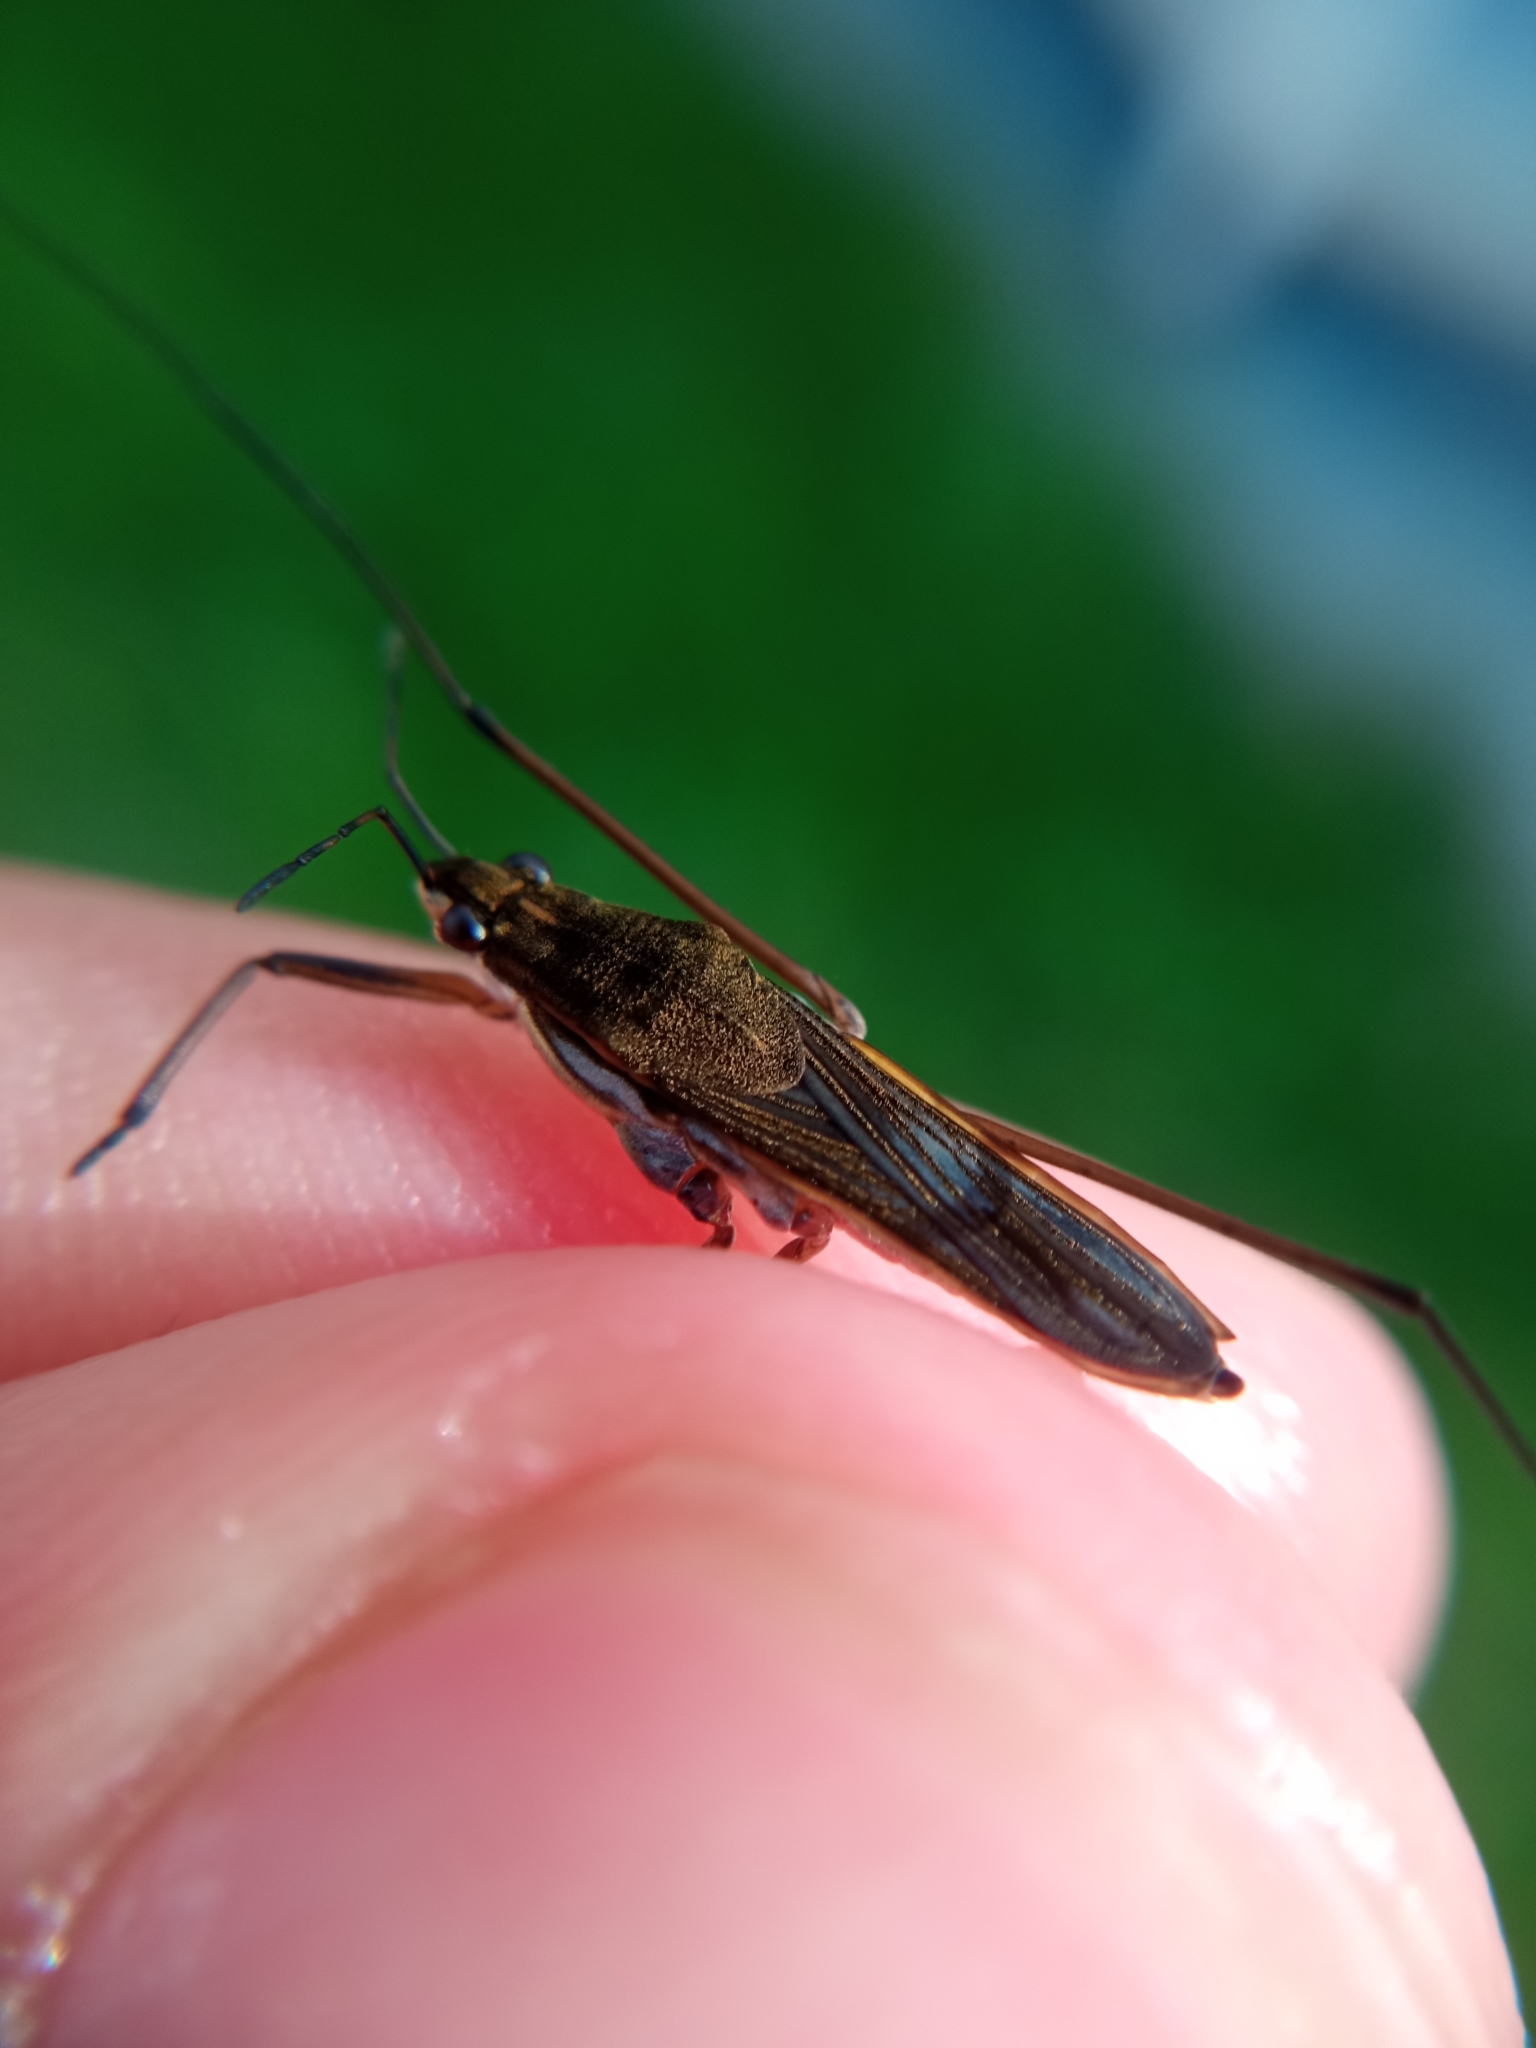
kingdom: Animalia
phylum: Arthropoda
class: Insecta
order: Hemiptera
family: Gerridae
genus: Gerris
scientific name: Gerris lacustris
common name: Common pondskater
